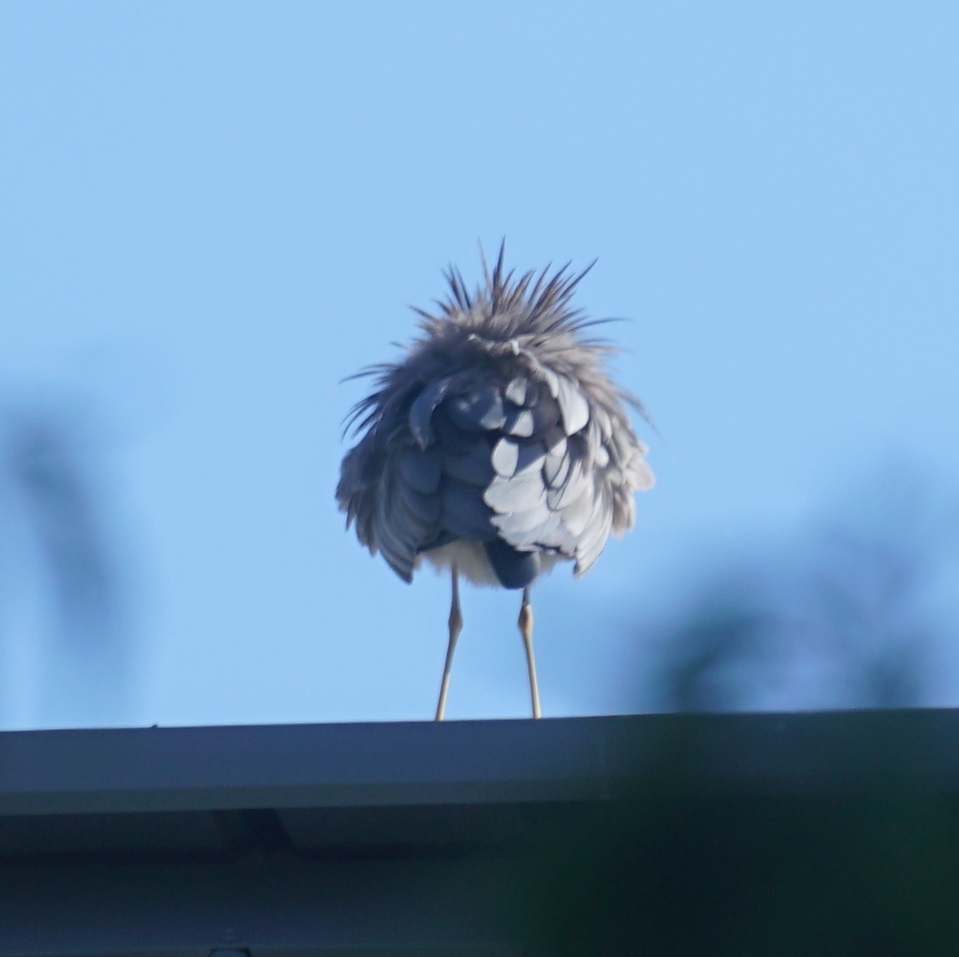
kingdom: Animalia
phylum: Chordata
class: Aves
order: Pelecaniformes
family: Ardeidae
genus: Egretta
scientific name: Egretta novaehollandiae
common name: White-faced heron
